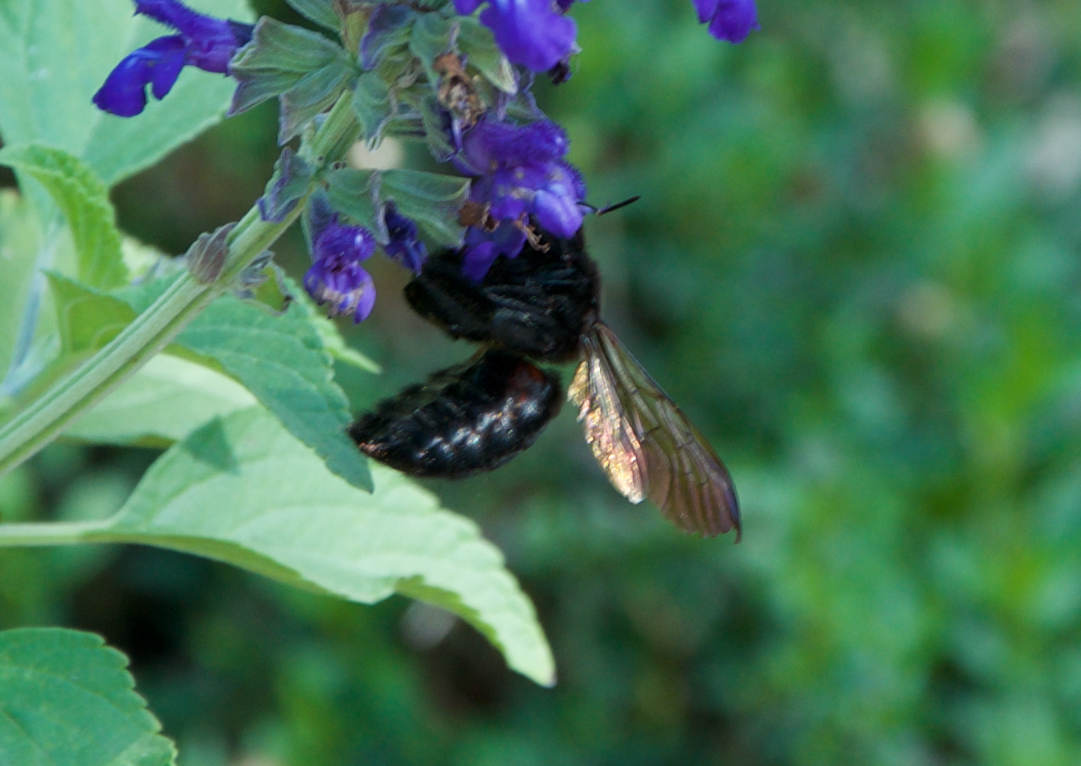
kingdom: Animalia
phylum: Arthropoda
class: Insecta
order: Hymenoptera
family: Apidae
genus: Xylocopa
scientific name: Xylocopa sonorina
